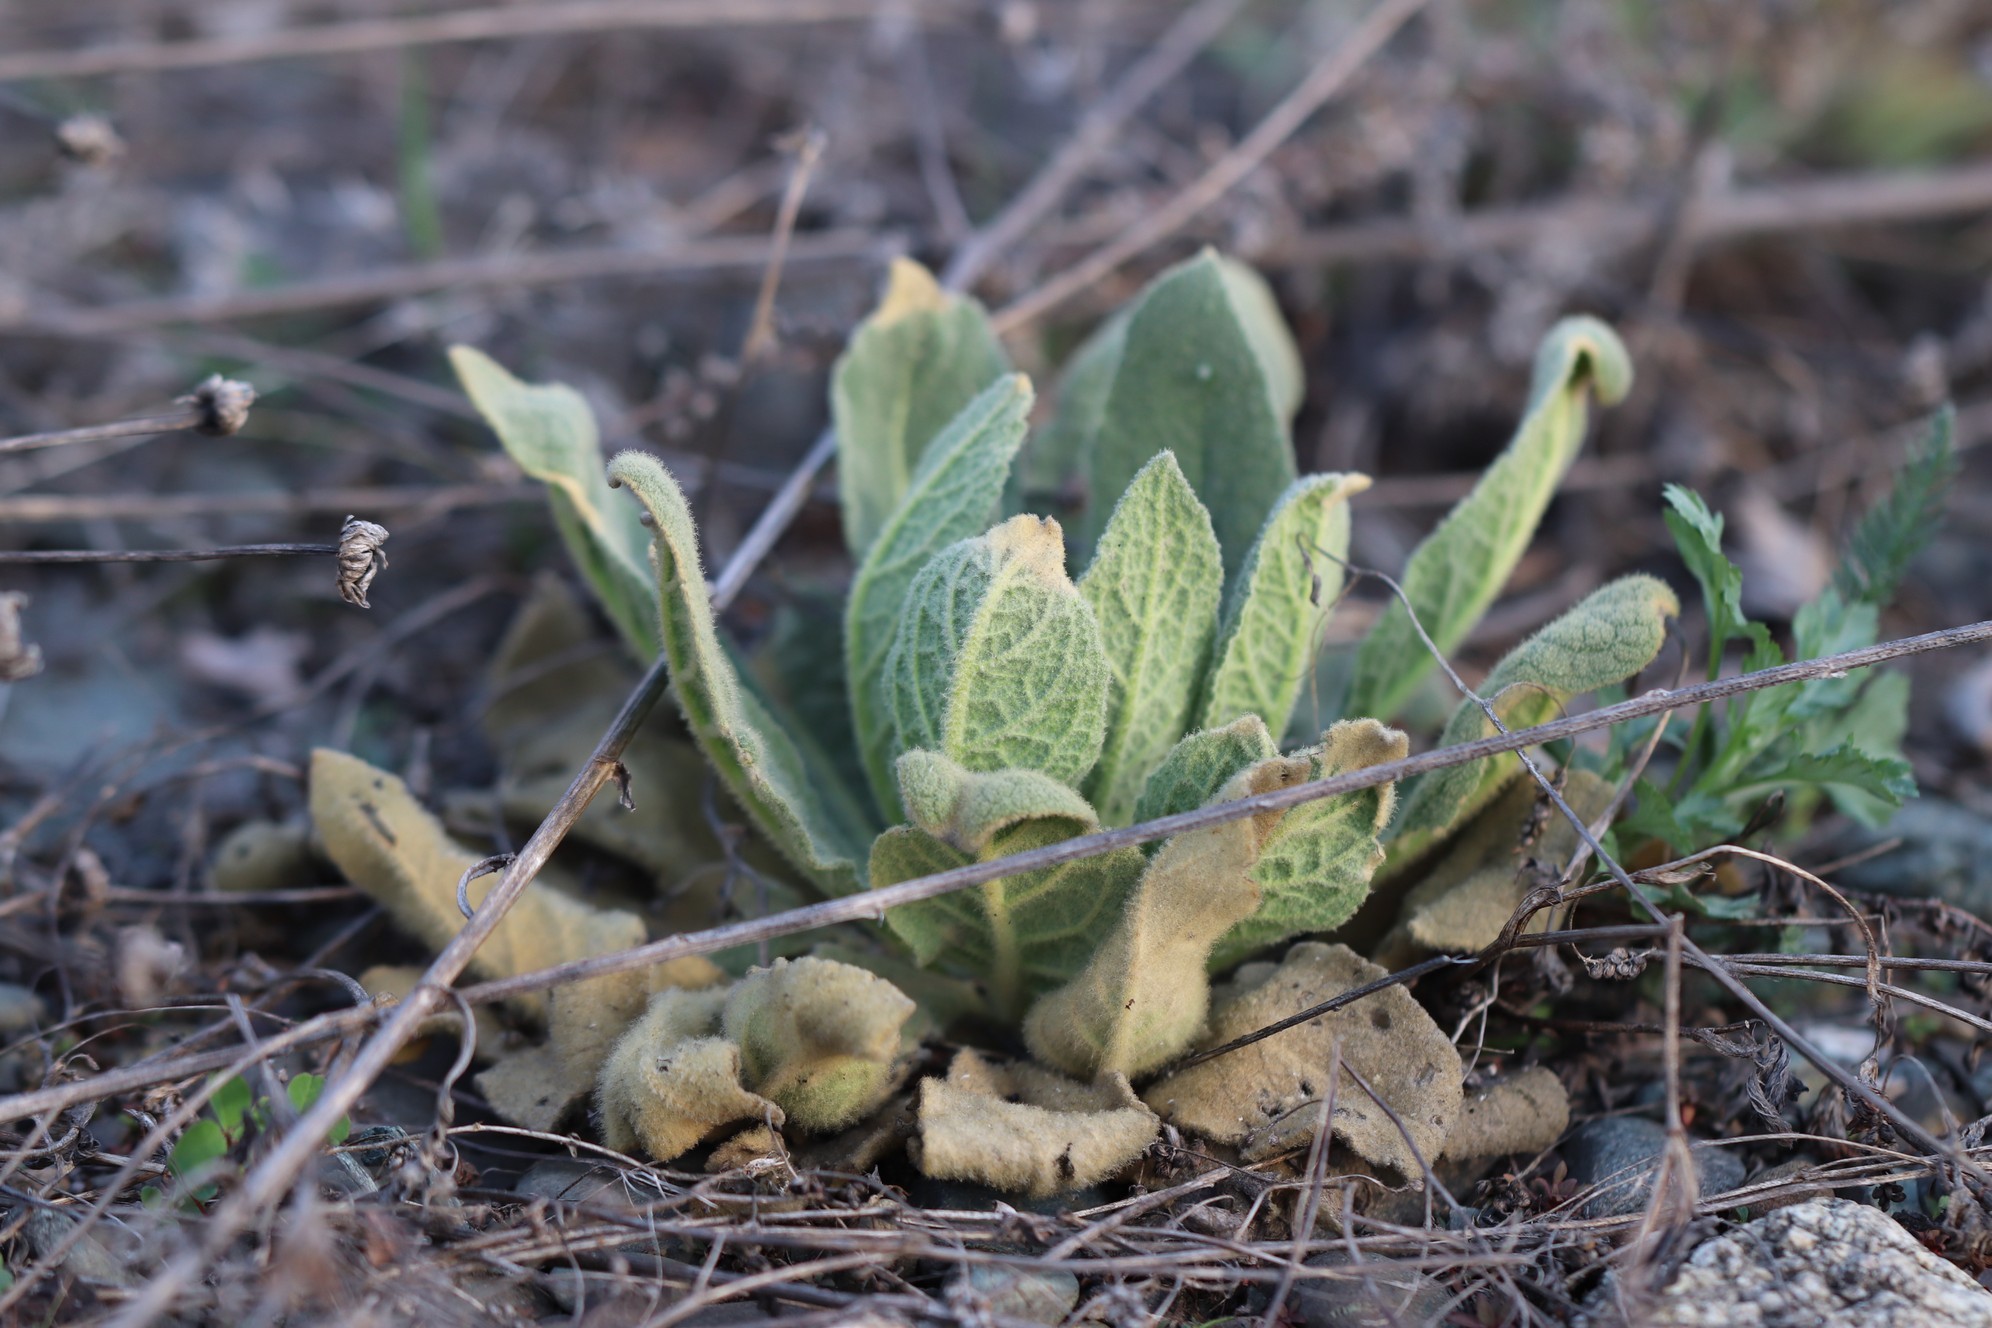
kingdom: Plantae
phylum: Tracheophyta
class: Magnoliopsida
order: Lamiales
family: Scrophulariaceae
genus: Verbascum
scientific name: Verbascum thapsus
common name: Common mullein
